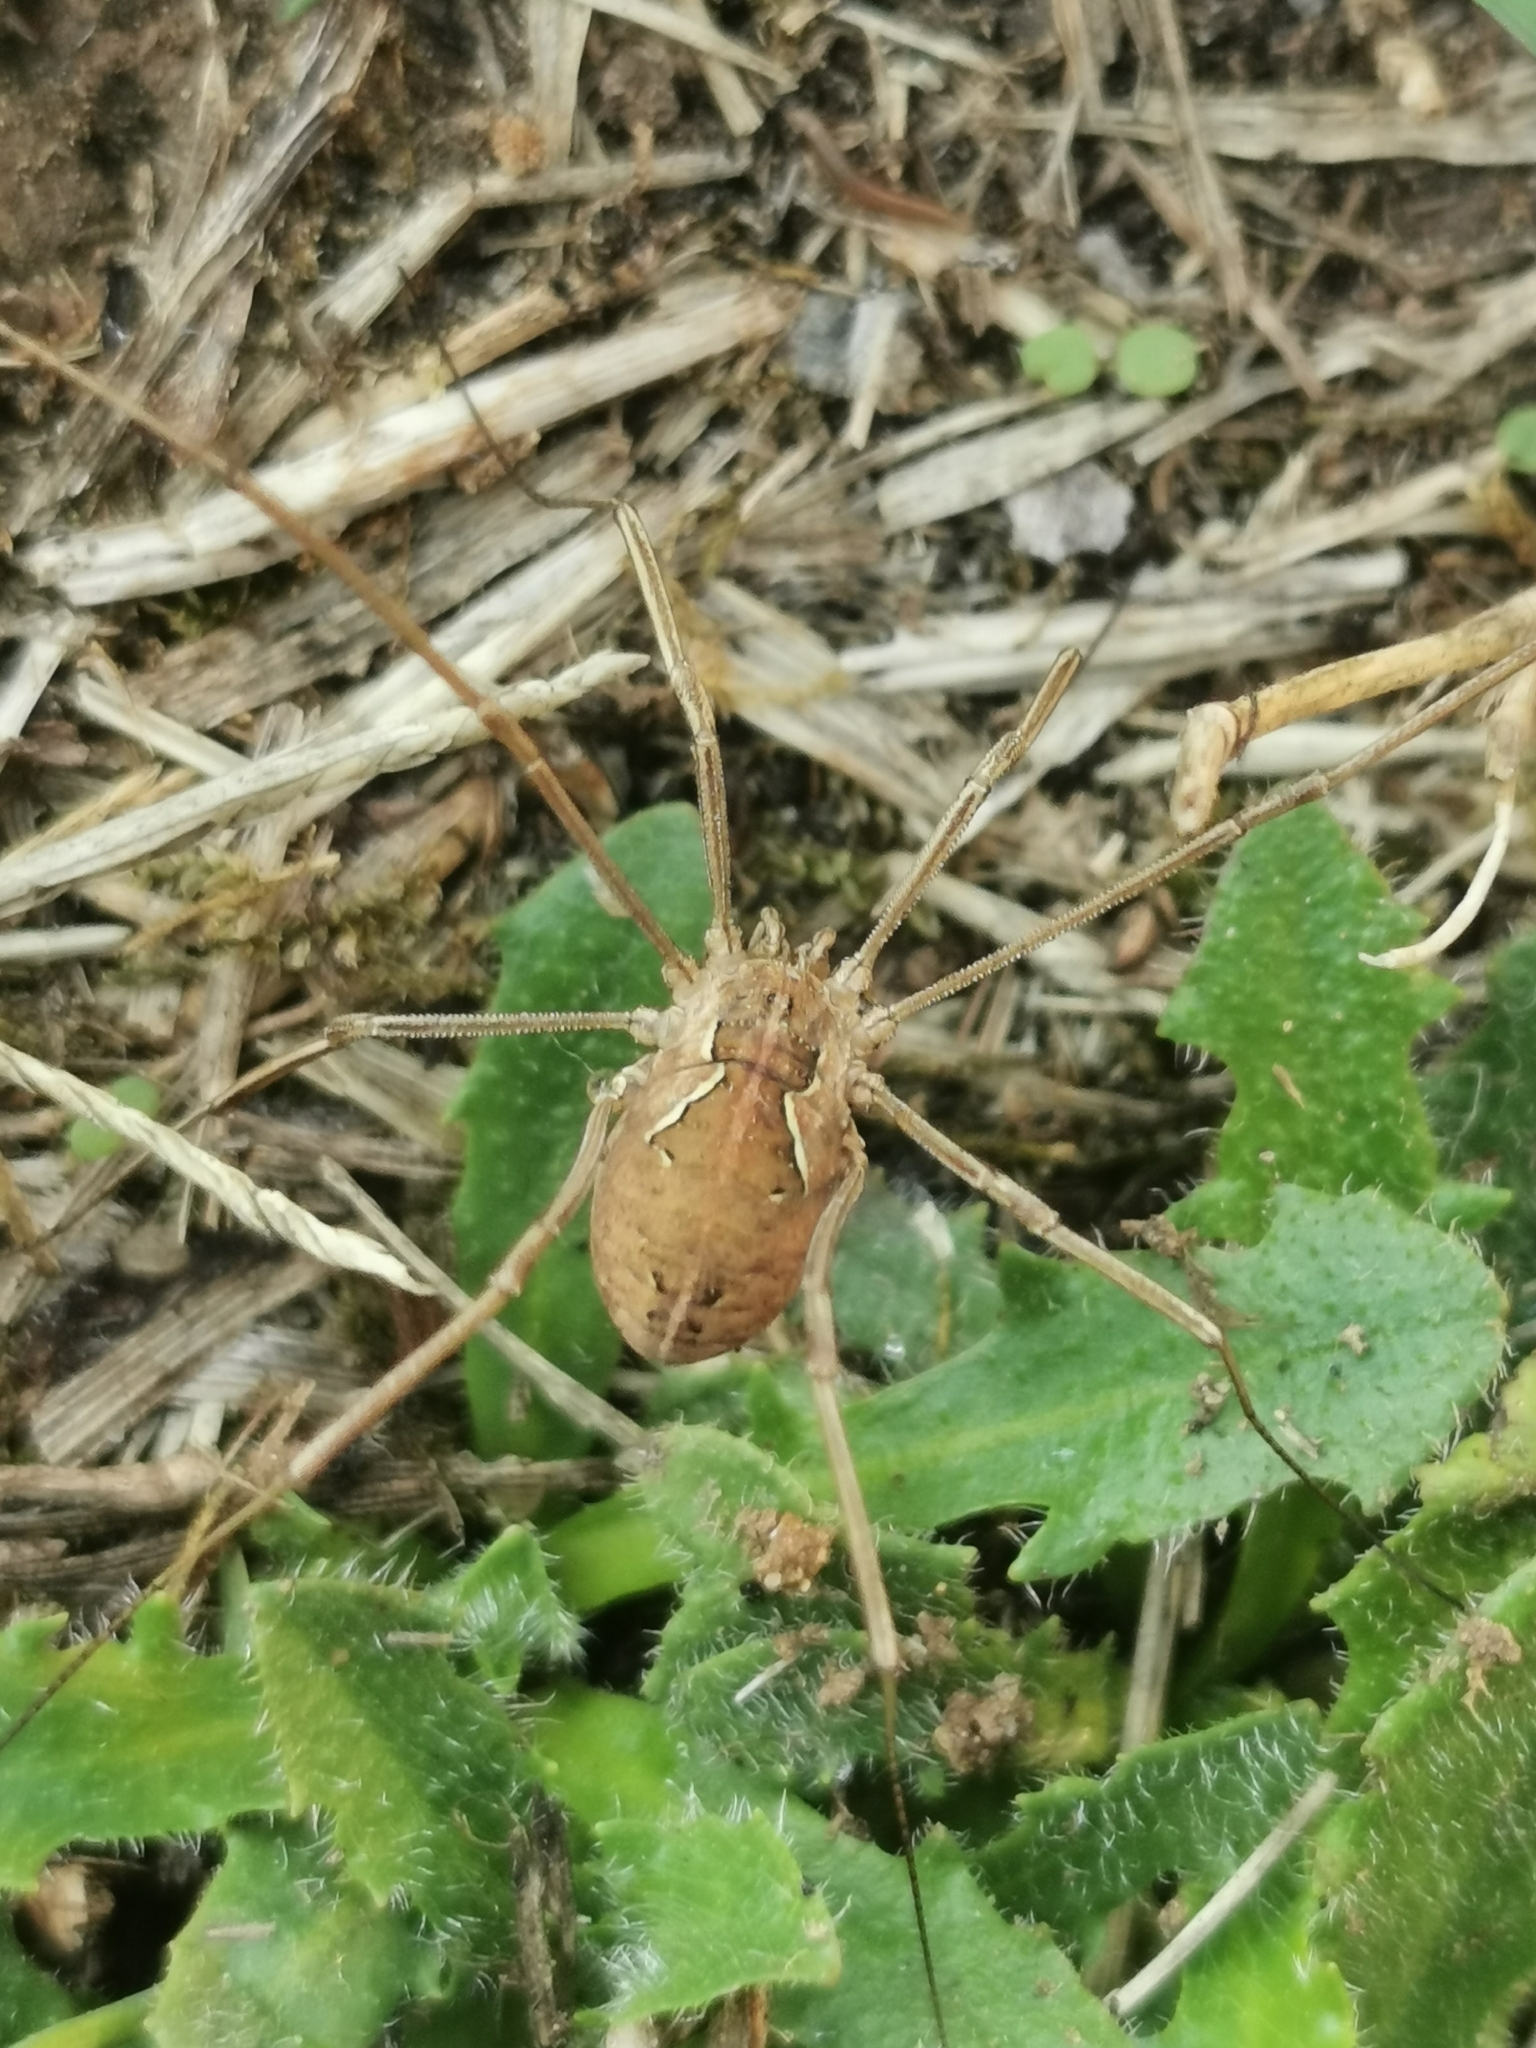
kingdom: Animalia
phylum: Arthropoda
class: Arachnida
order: Opiliones
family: Phalangiidae
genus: Metaphalangium
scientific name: Metaphalangium cirtanum
